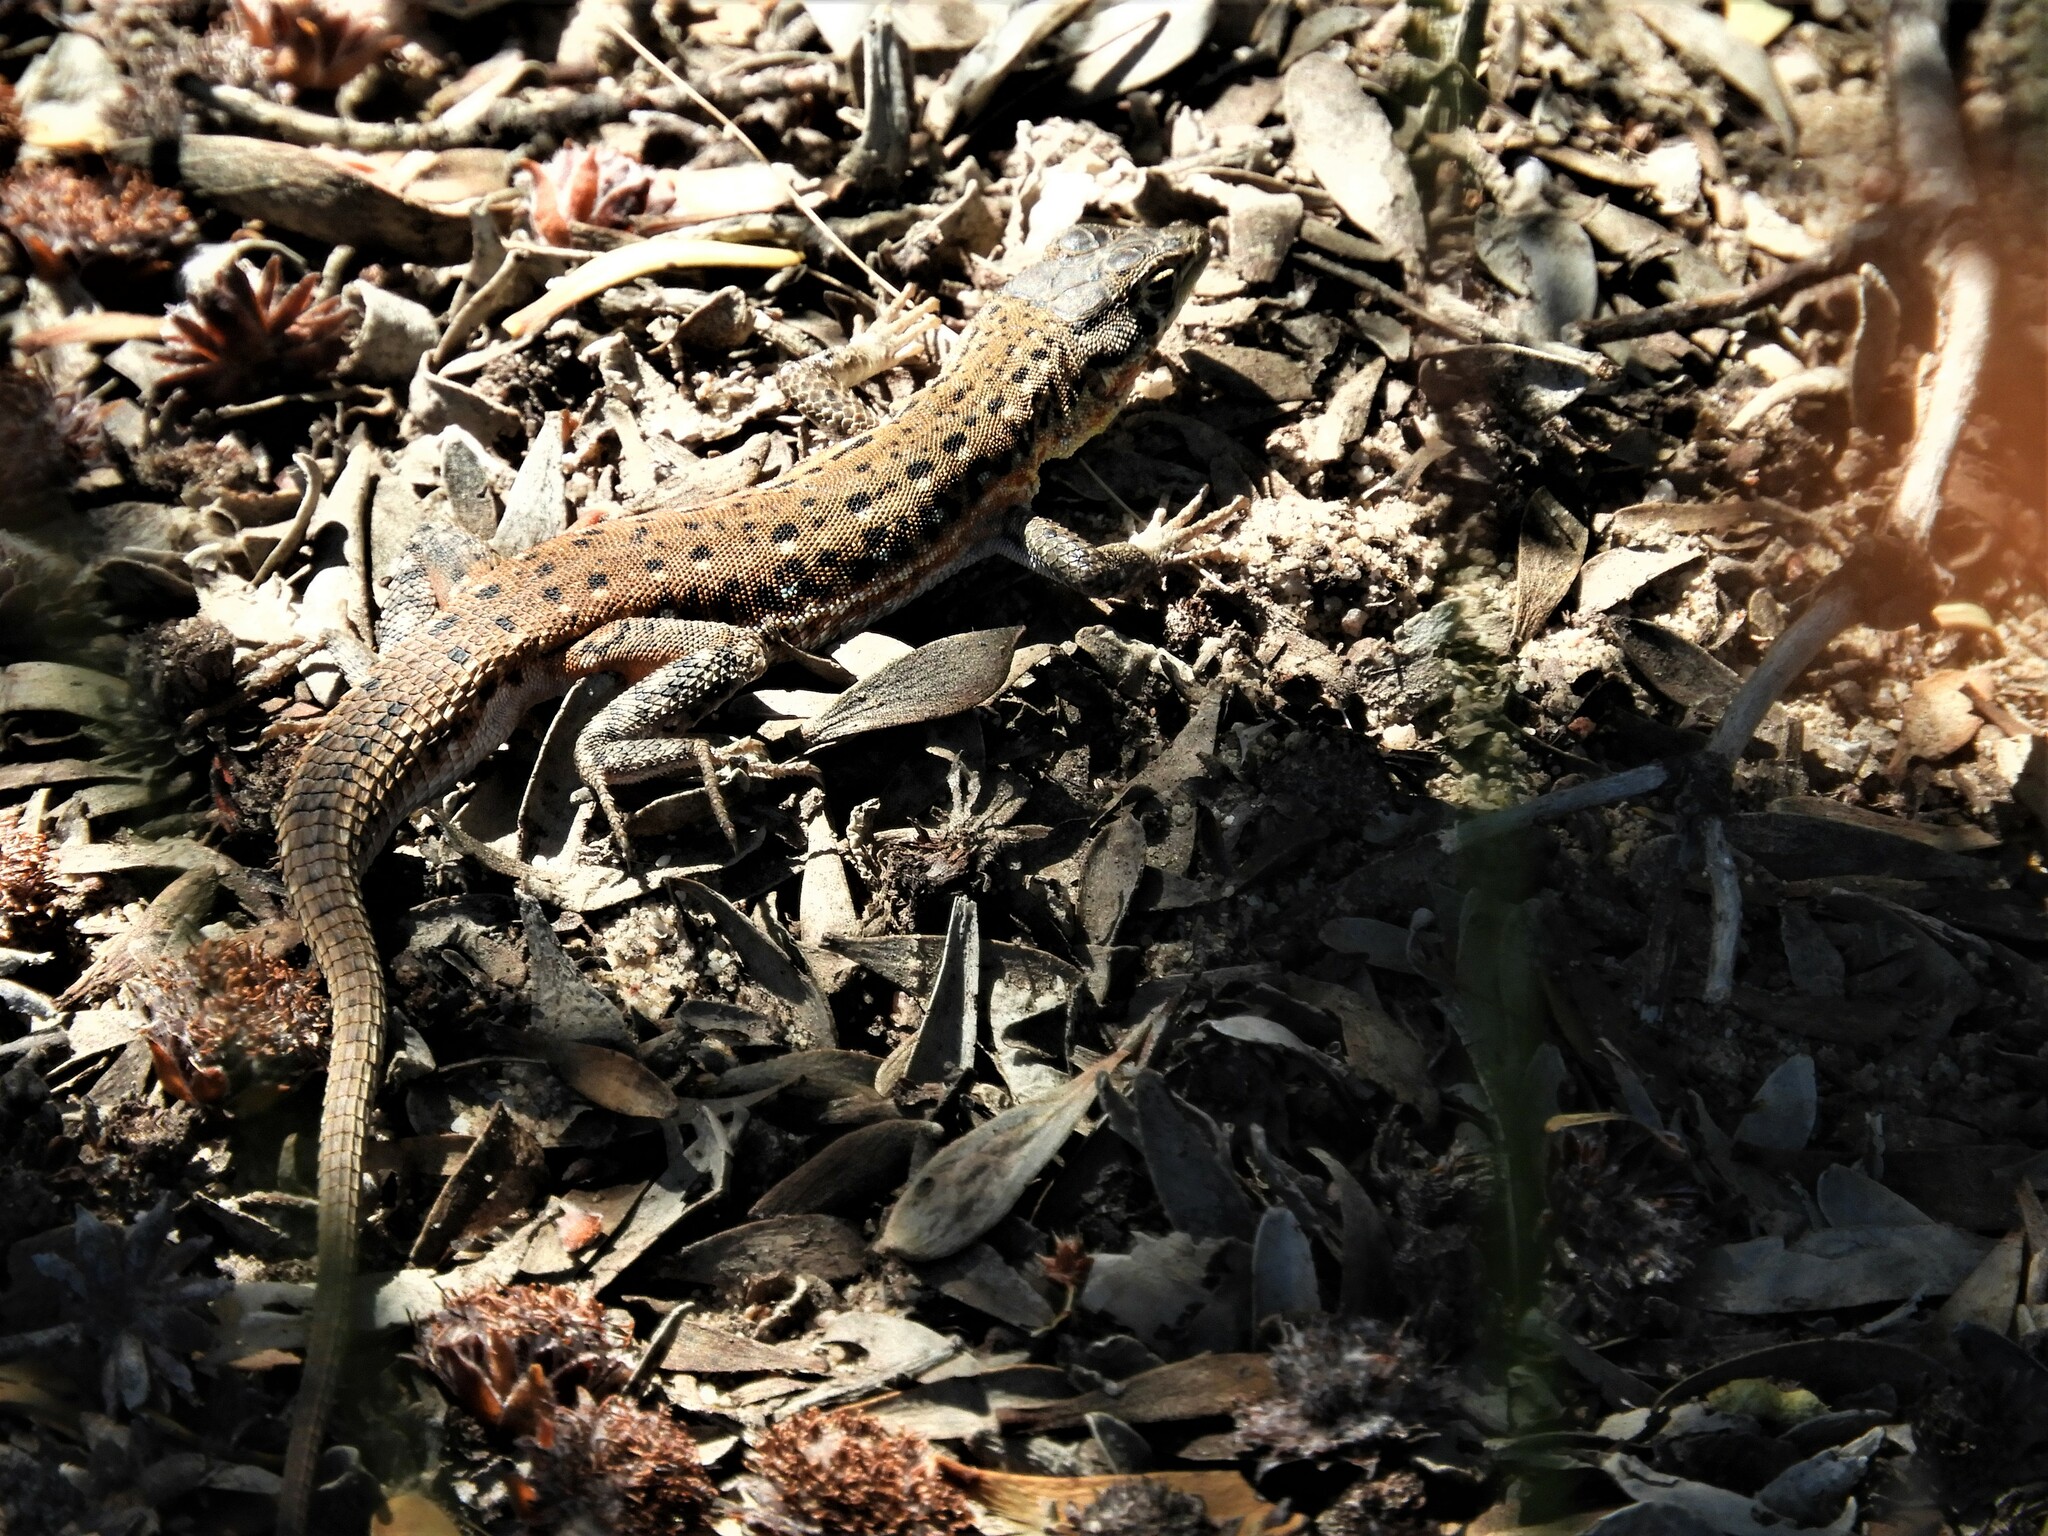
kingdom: Animalia
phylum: Chordata
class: Squamata
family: Lacertidae
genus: Pedioplanis
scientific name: Pedioplanis lineoocellata
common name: Spotted sand lizard
